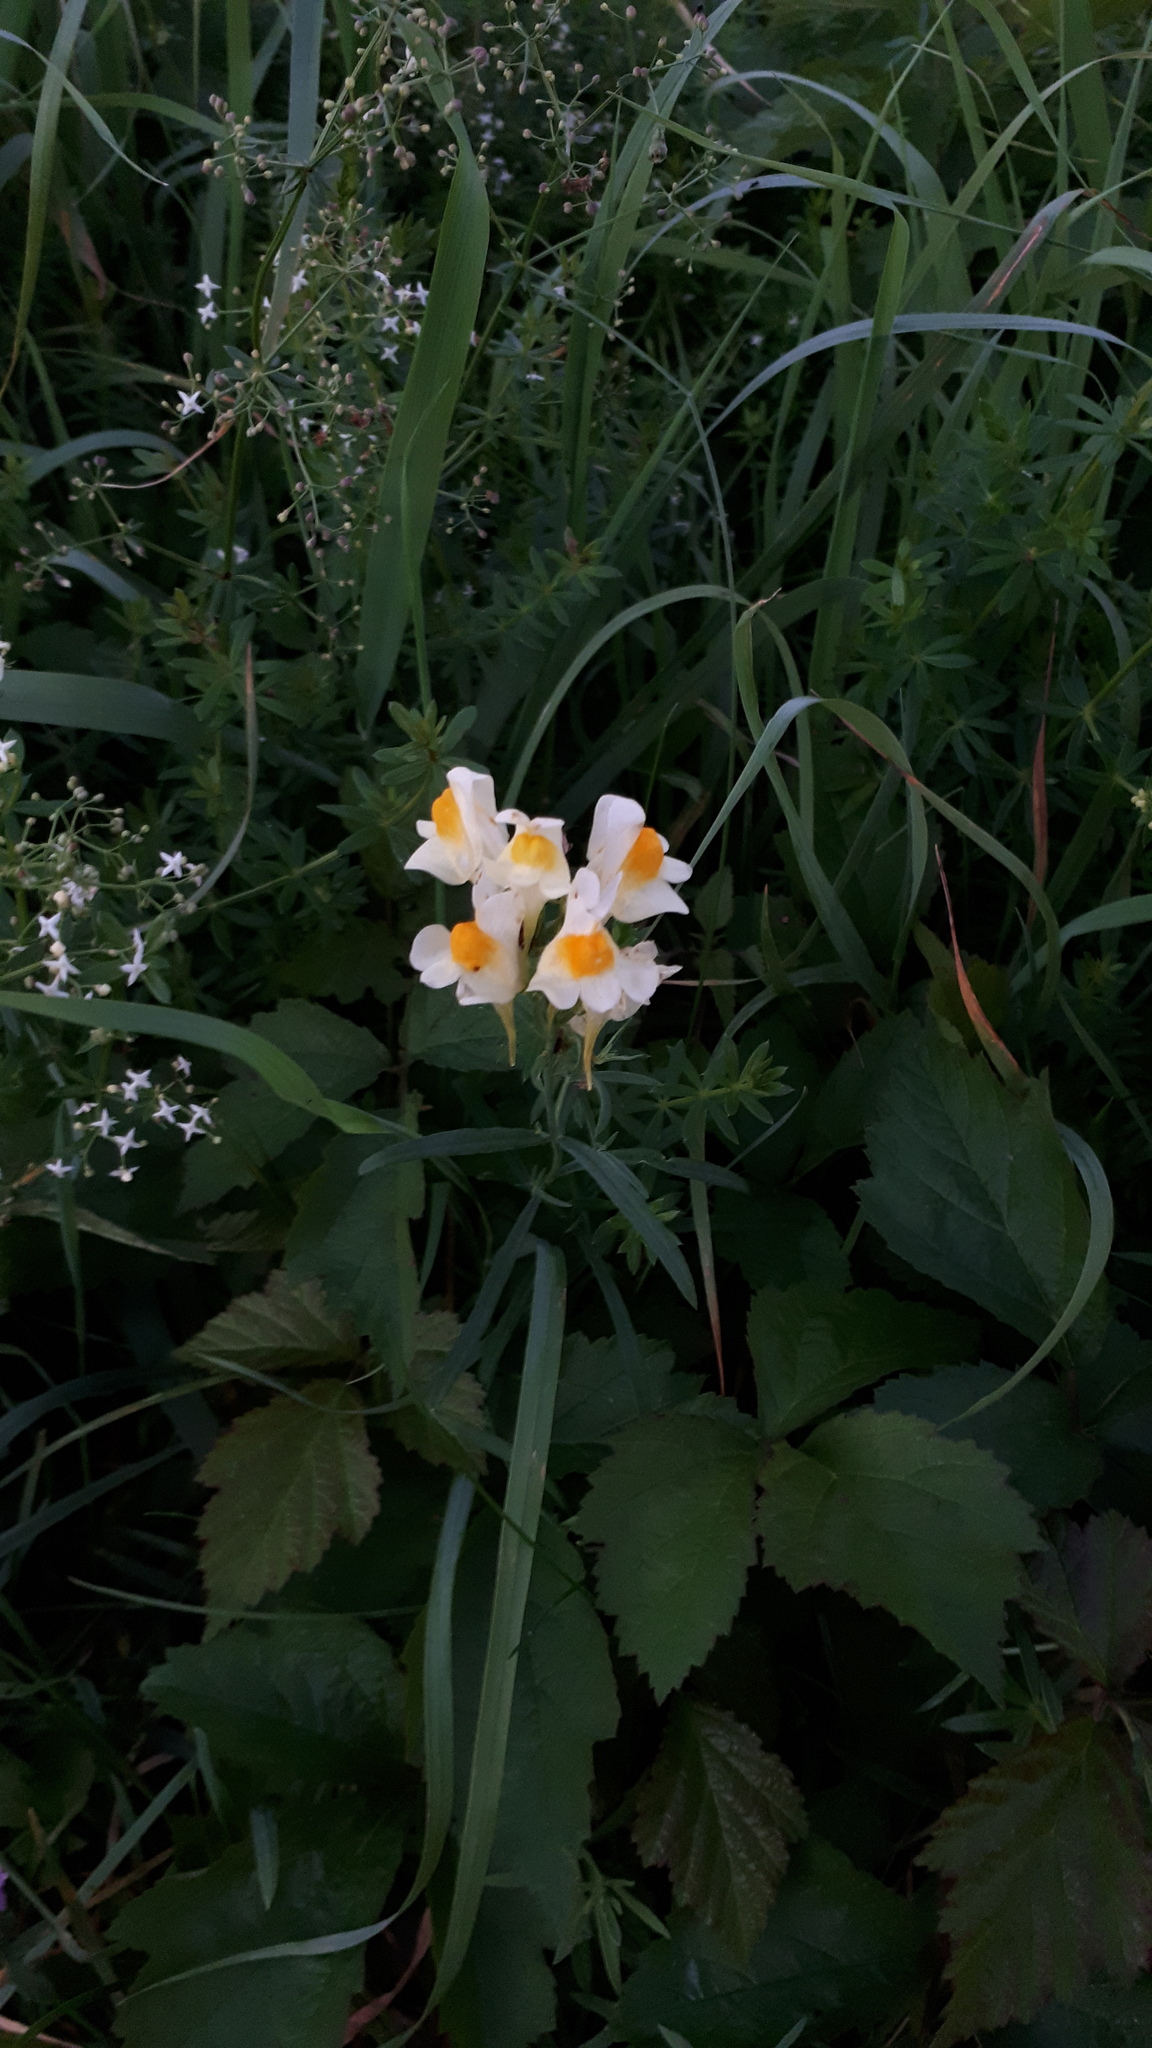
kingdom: Plantae
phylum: Tracheophyta
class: Magnoliopsida
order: Lamiales
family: Plantaginaceae
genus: Linaria
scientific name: Linaria vulgaris
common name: Butter and eggs
